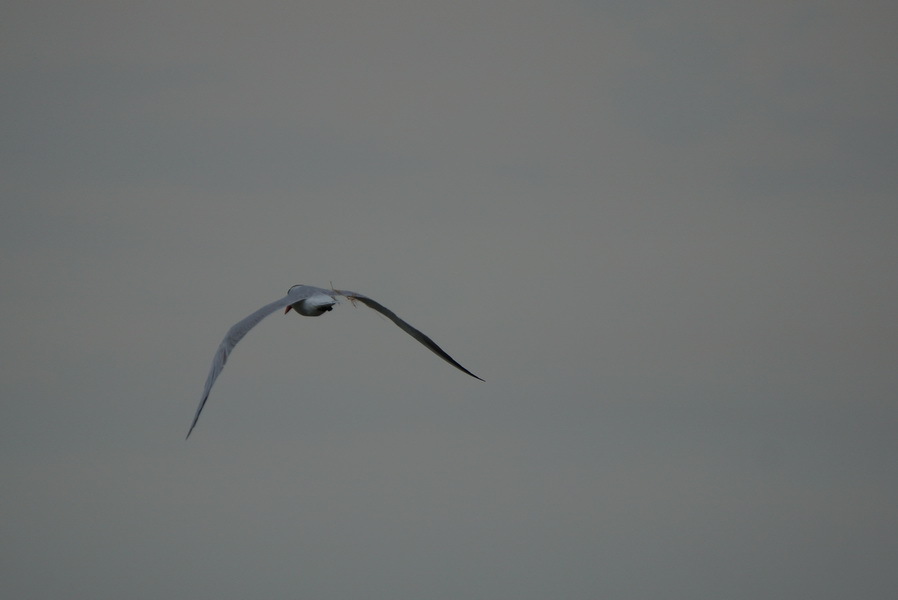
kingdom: Animalia
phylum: Chordata
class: Aves
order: Charadriiformes
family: Laridae
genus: Hydroprogne
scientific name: Hydroprogne caspia
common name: Caspian tern
